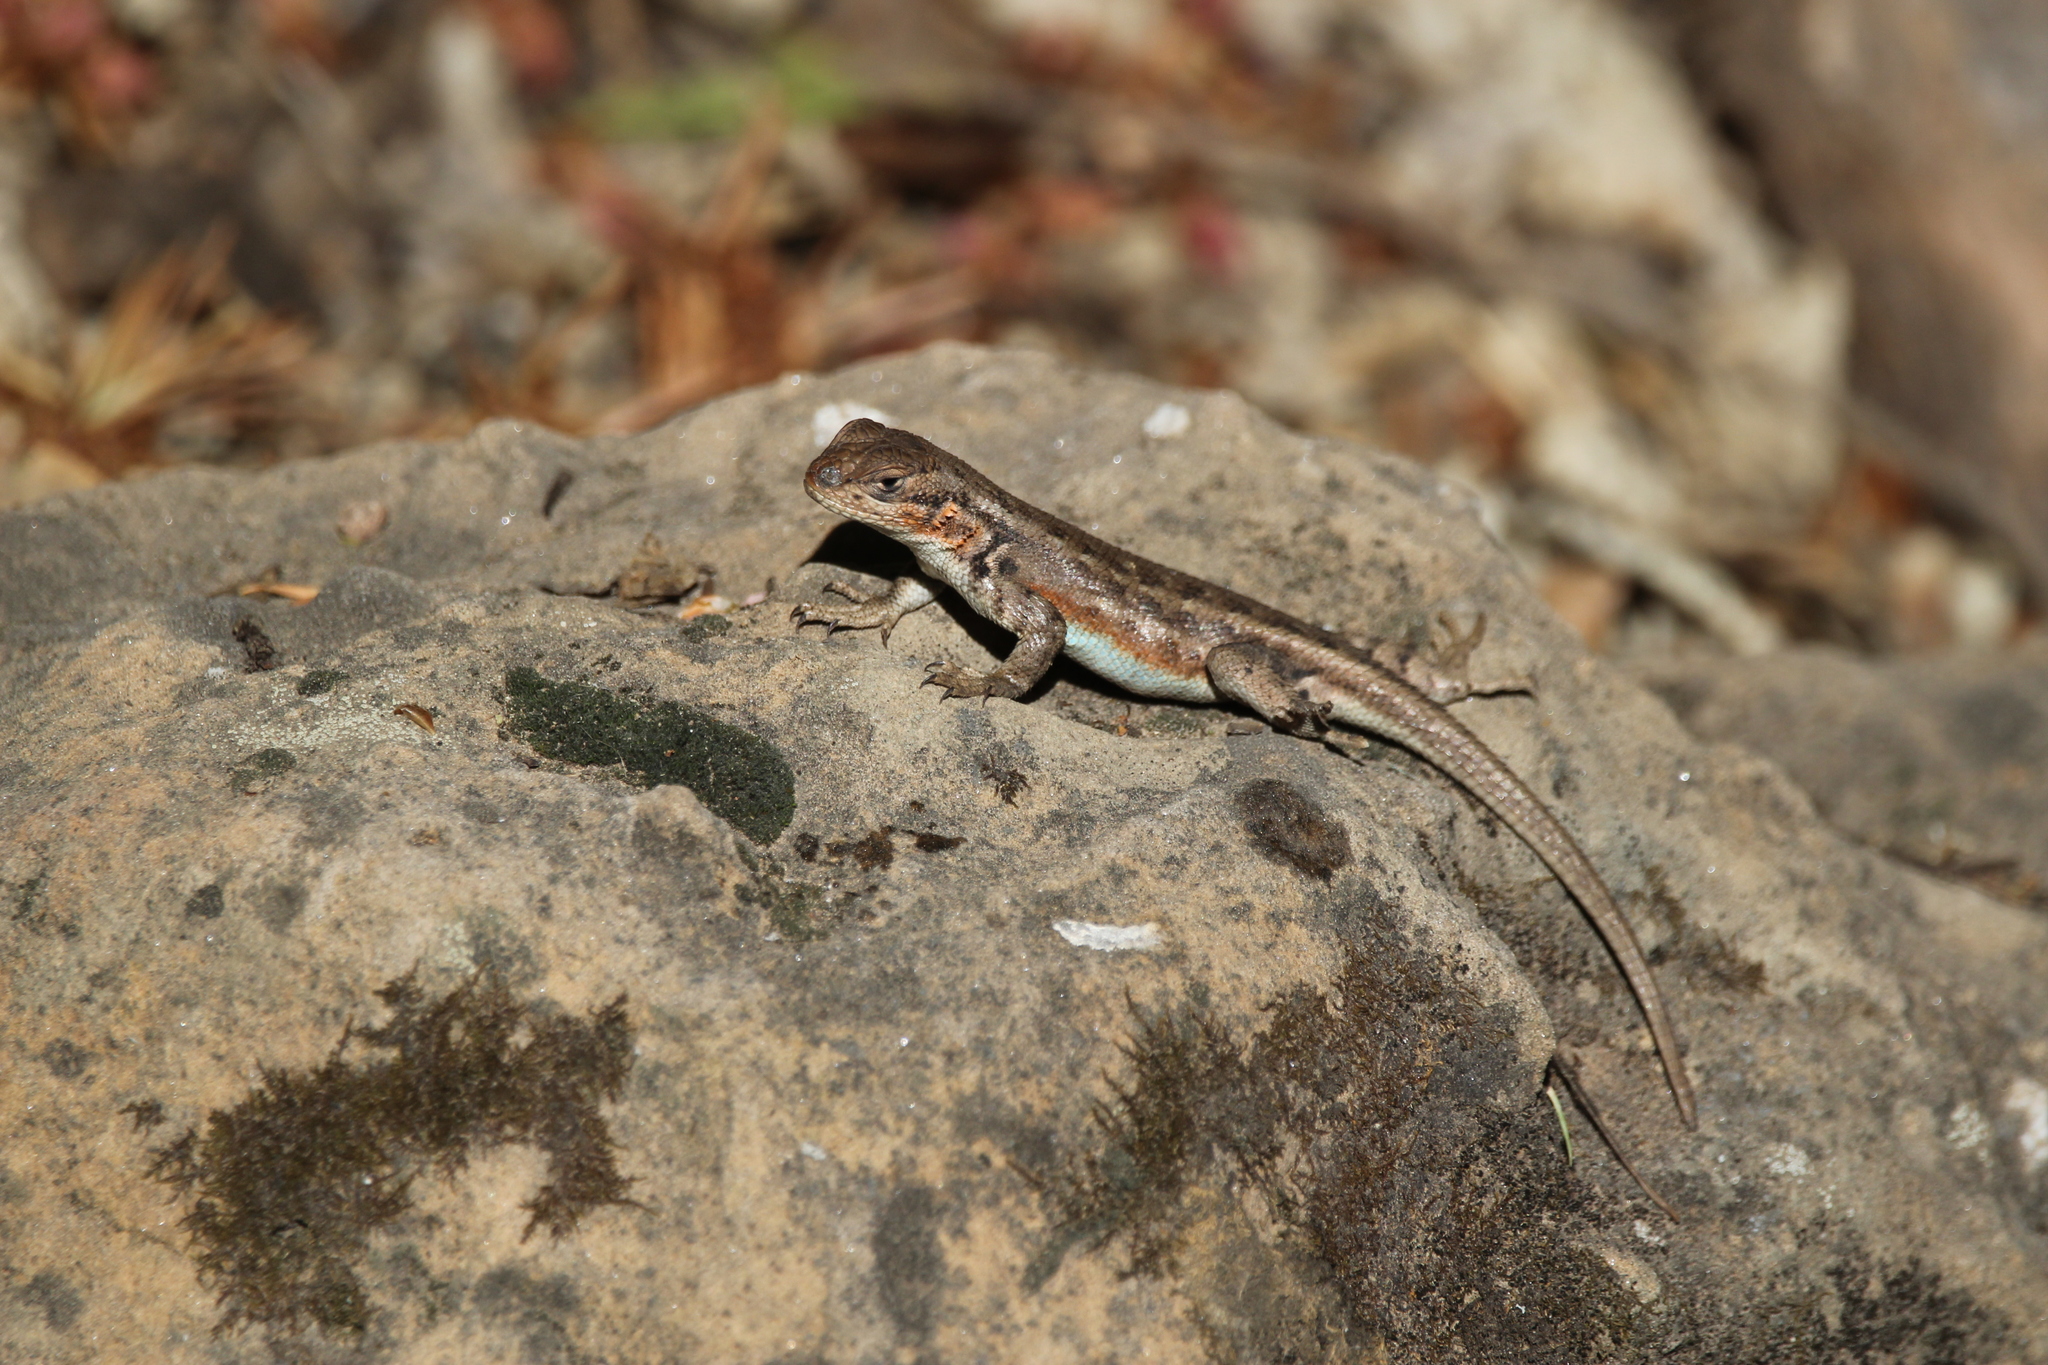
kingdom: Animalia
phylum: Chordata
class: Squamata
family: Phrynosomatidae
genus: Sceloporus
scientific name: Sceloporus graciosus
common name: Sagebrush lizard
